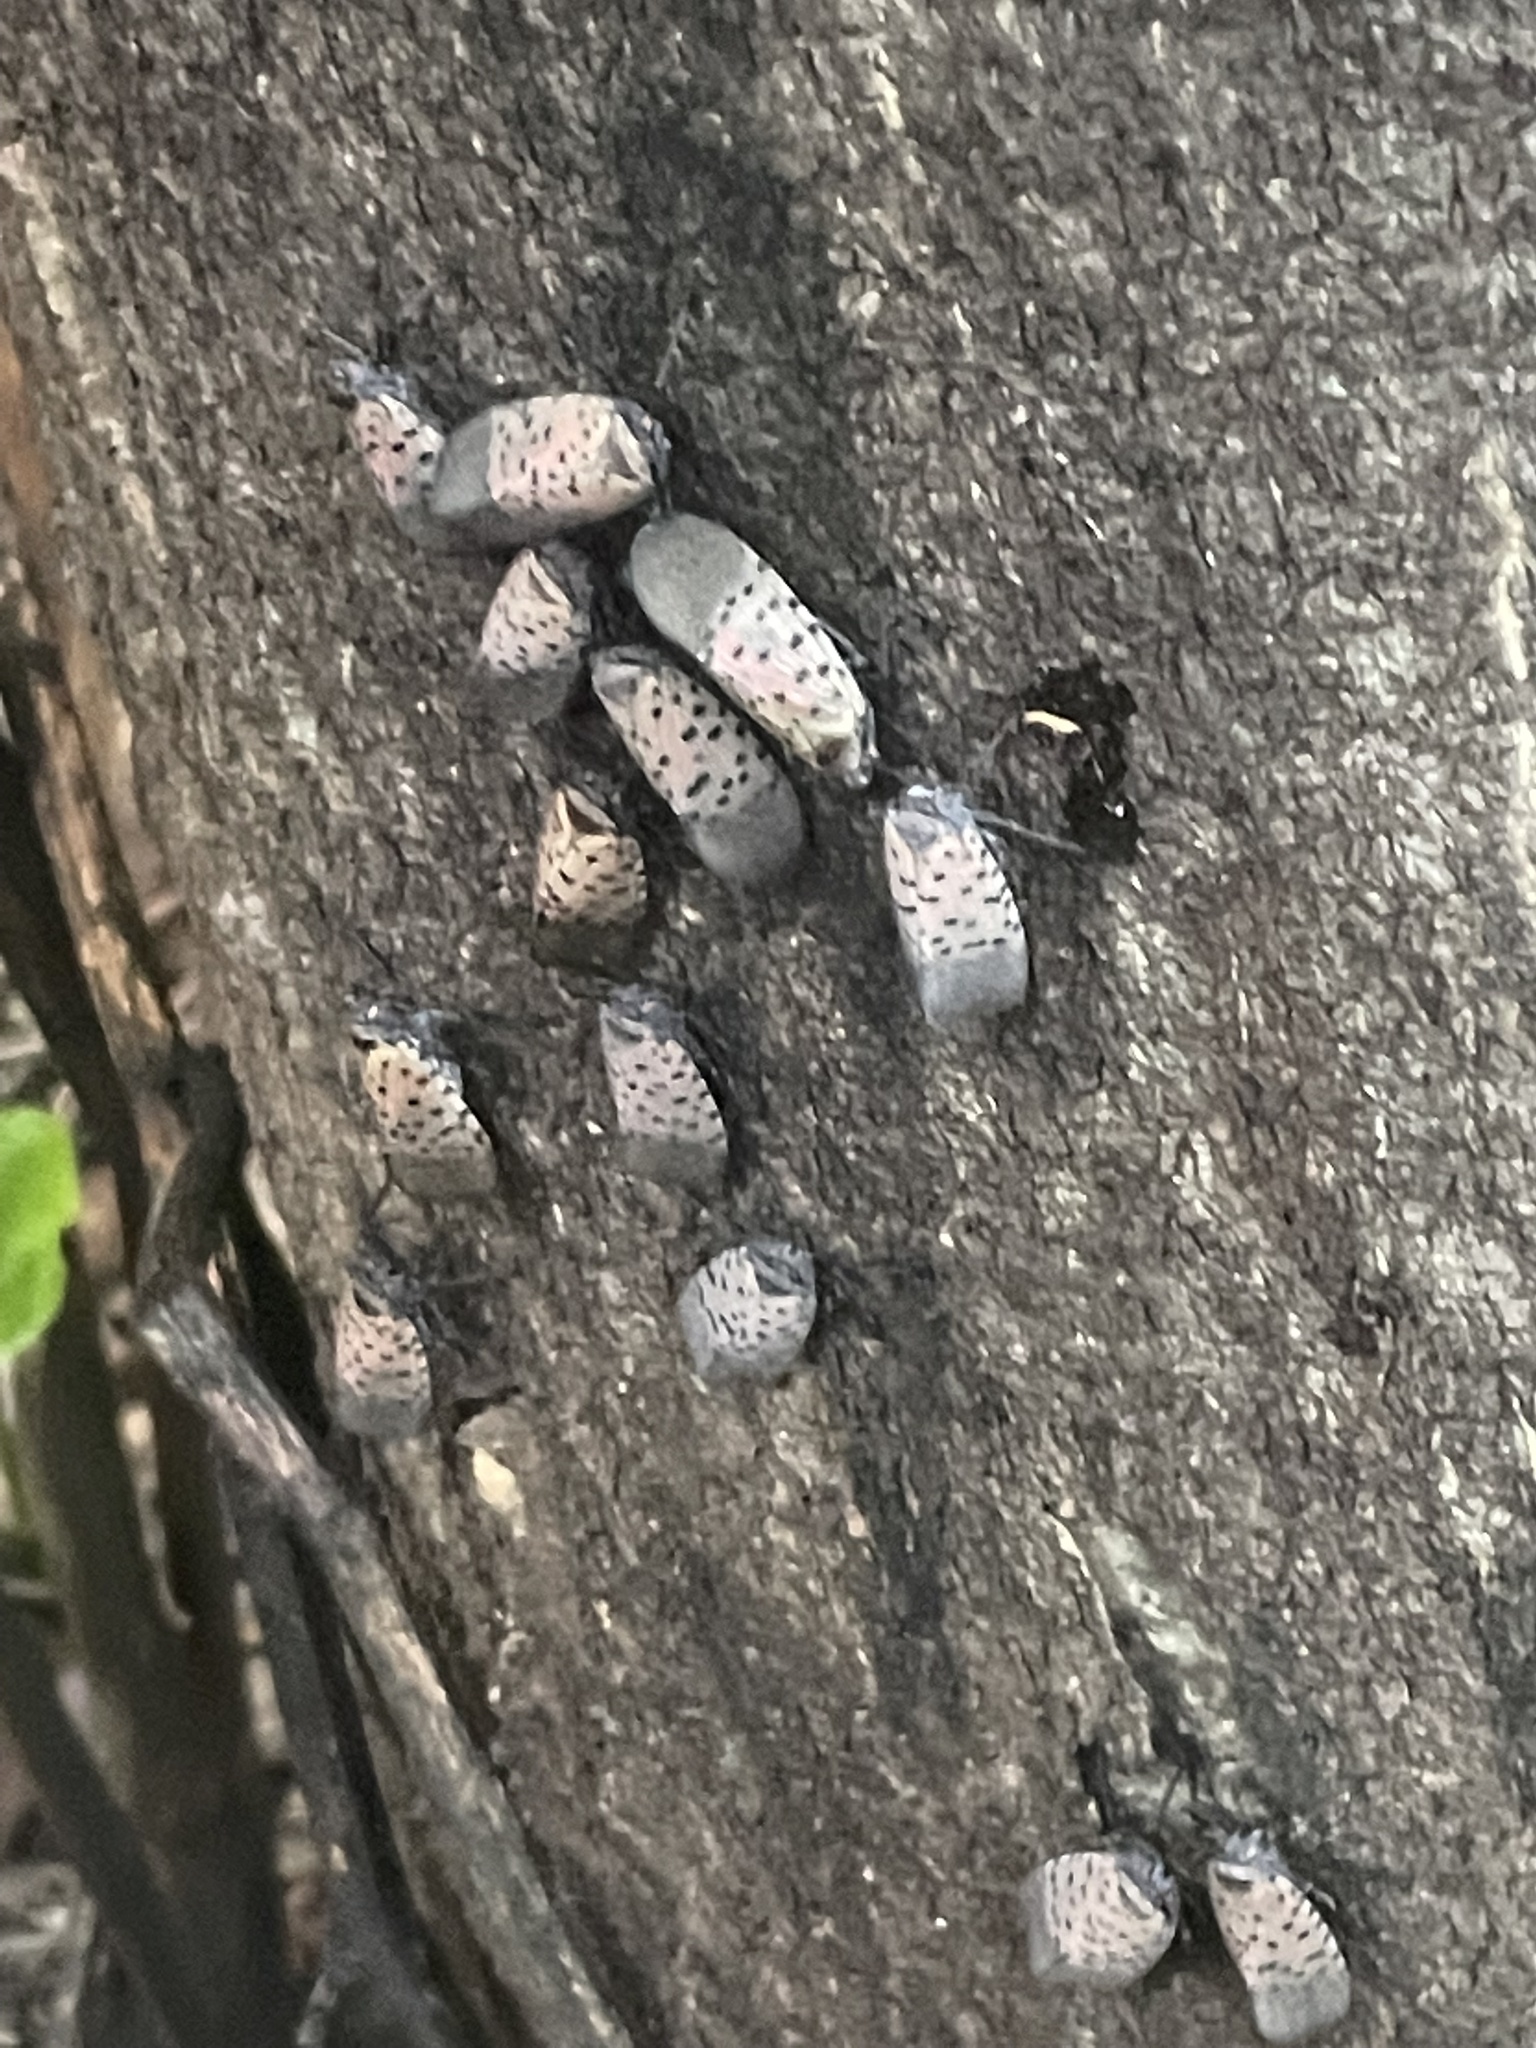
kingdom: Animalia
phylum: Arthropoda
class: Insecta
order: Hemiptera
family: Fulgoridae
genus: Lycorma
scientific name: Lycorma delicatula
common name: Spotted lanternfly
